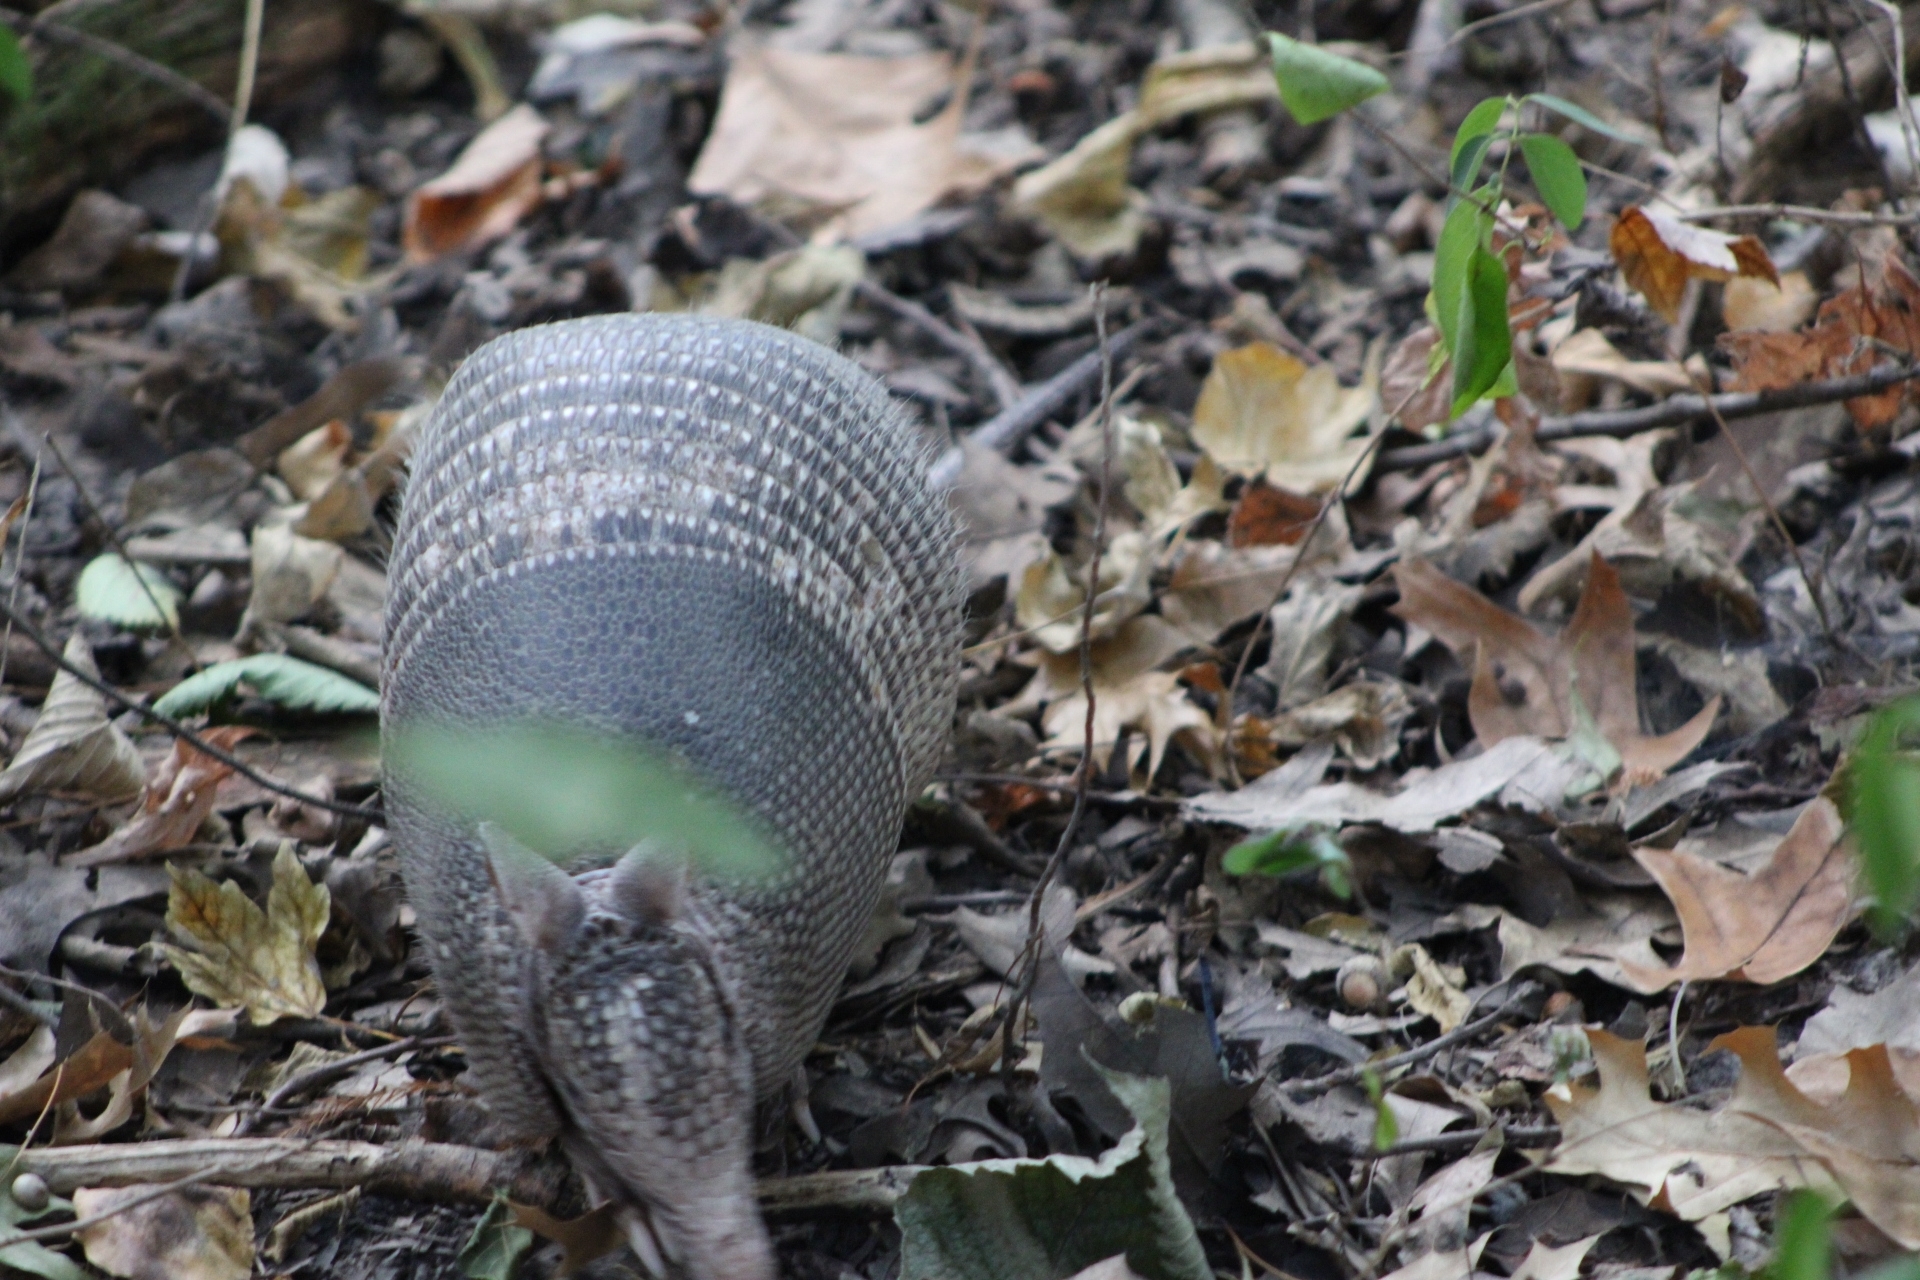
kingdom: Animalia
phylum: Chordata
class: Mammalia
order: Cingulata
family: Dasypodidae
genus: Dasypus
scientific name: Dasypus novemcinctus
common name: Nine-banded armadillo
